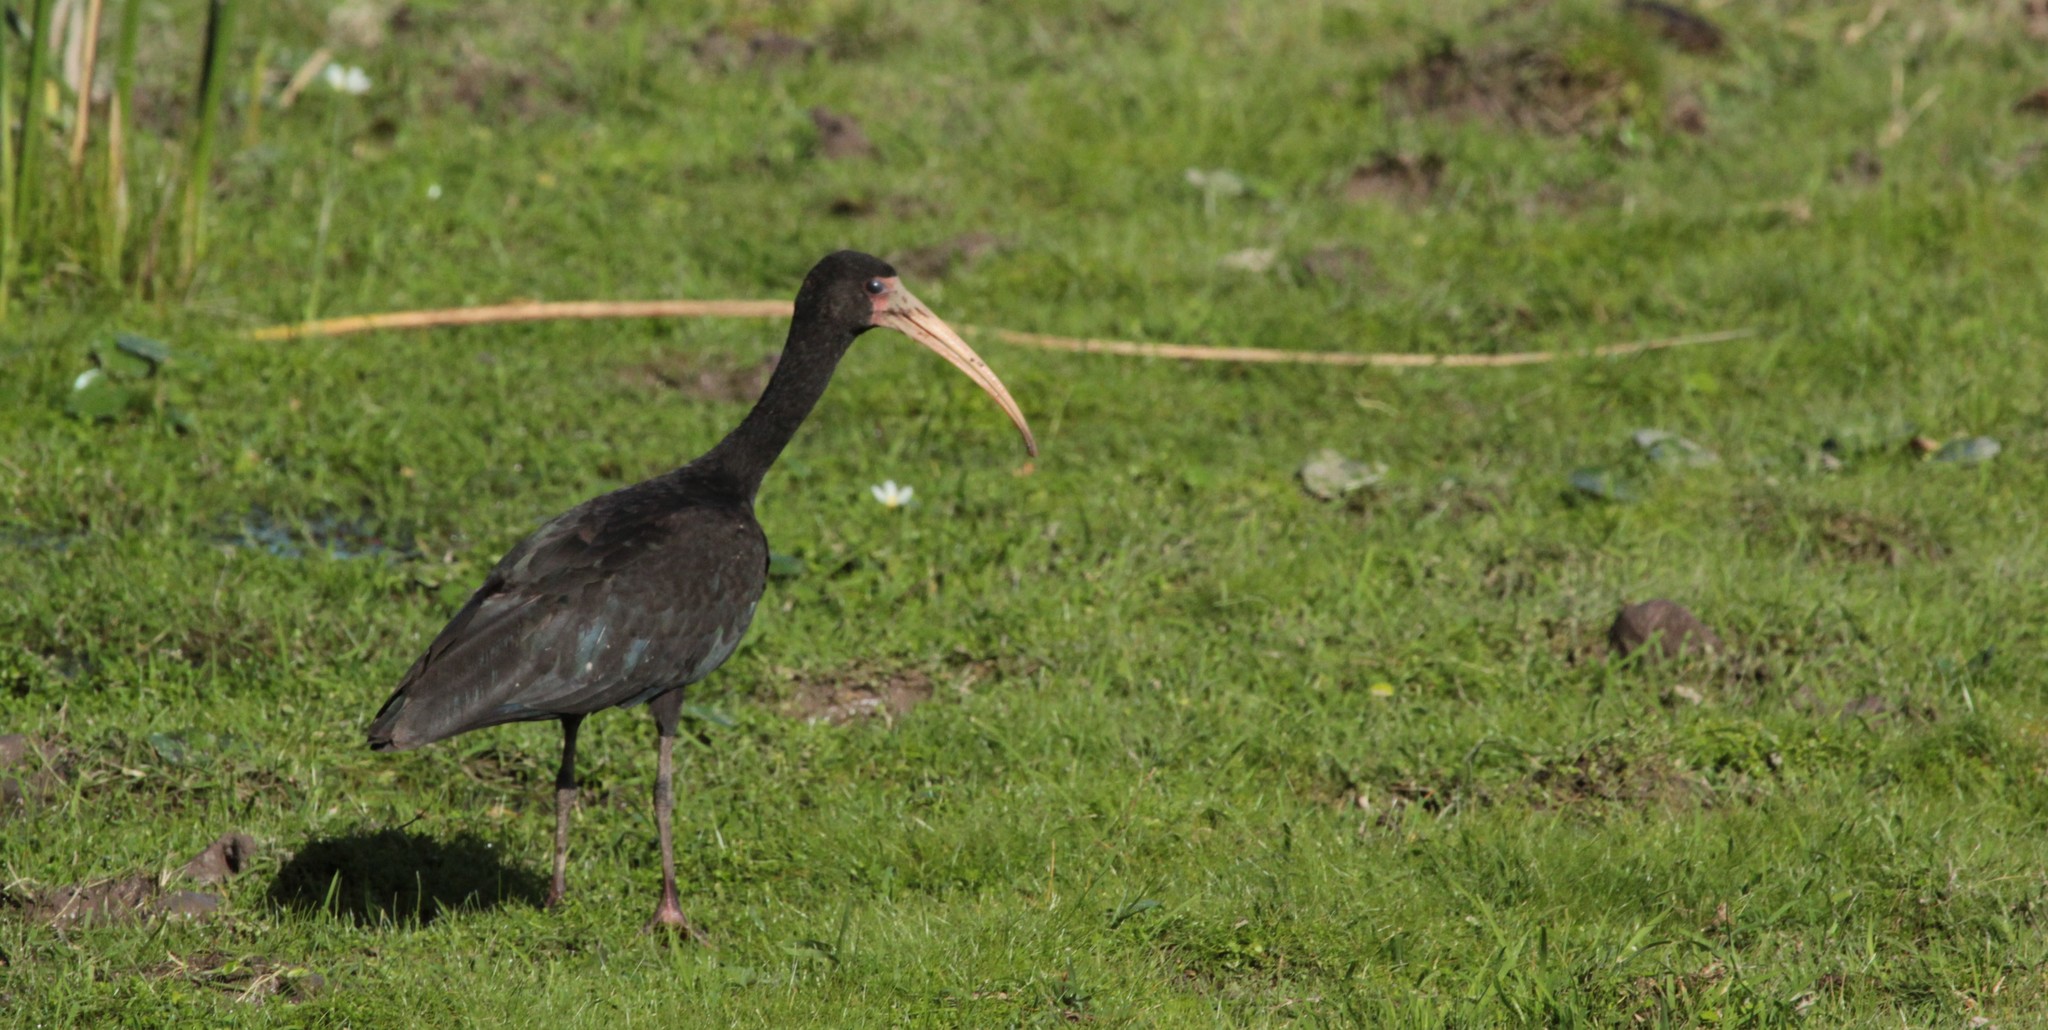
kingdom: Animalia
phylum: Chordata
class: Aves
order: Pelecaniformes
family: Threskiornithidae
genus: Phimosus
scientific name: Phimosus infuscatus
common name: Bare-faced ibis
